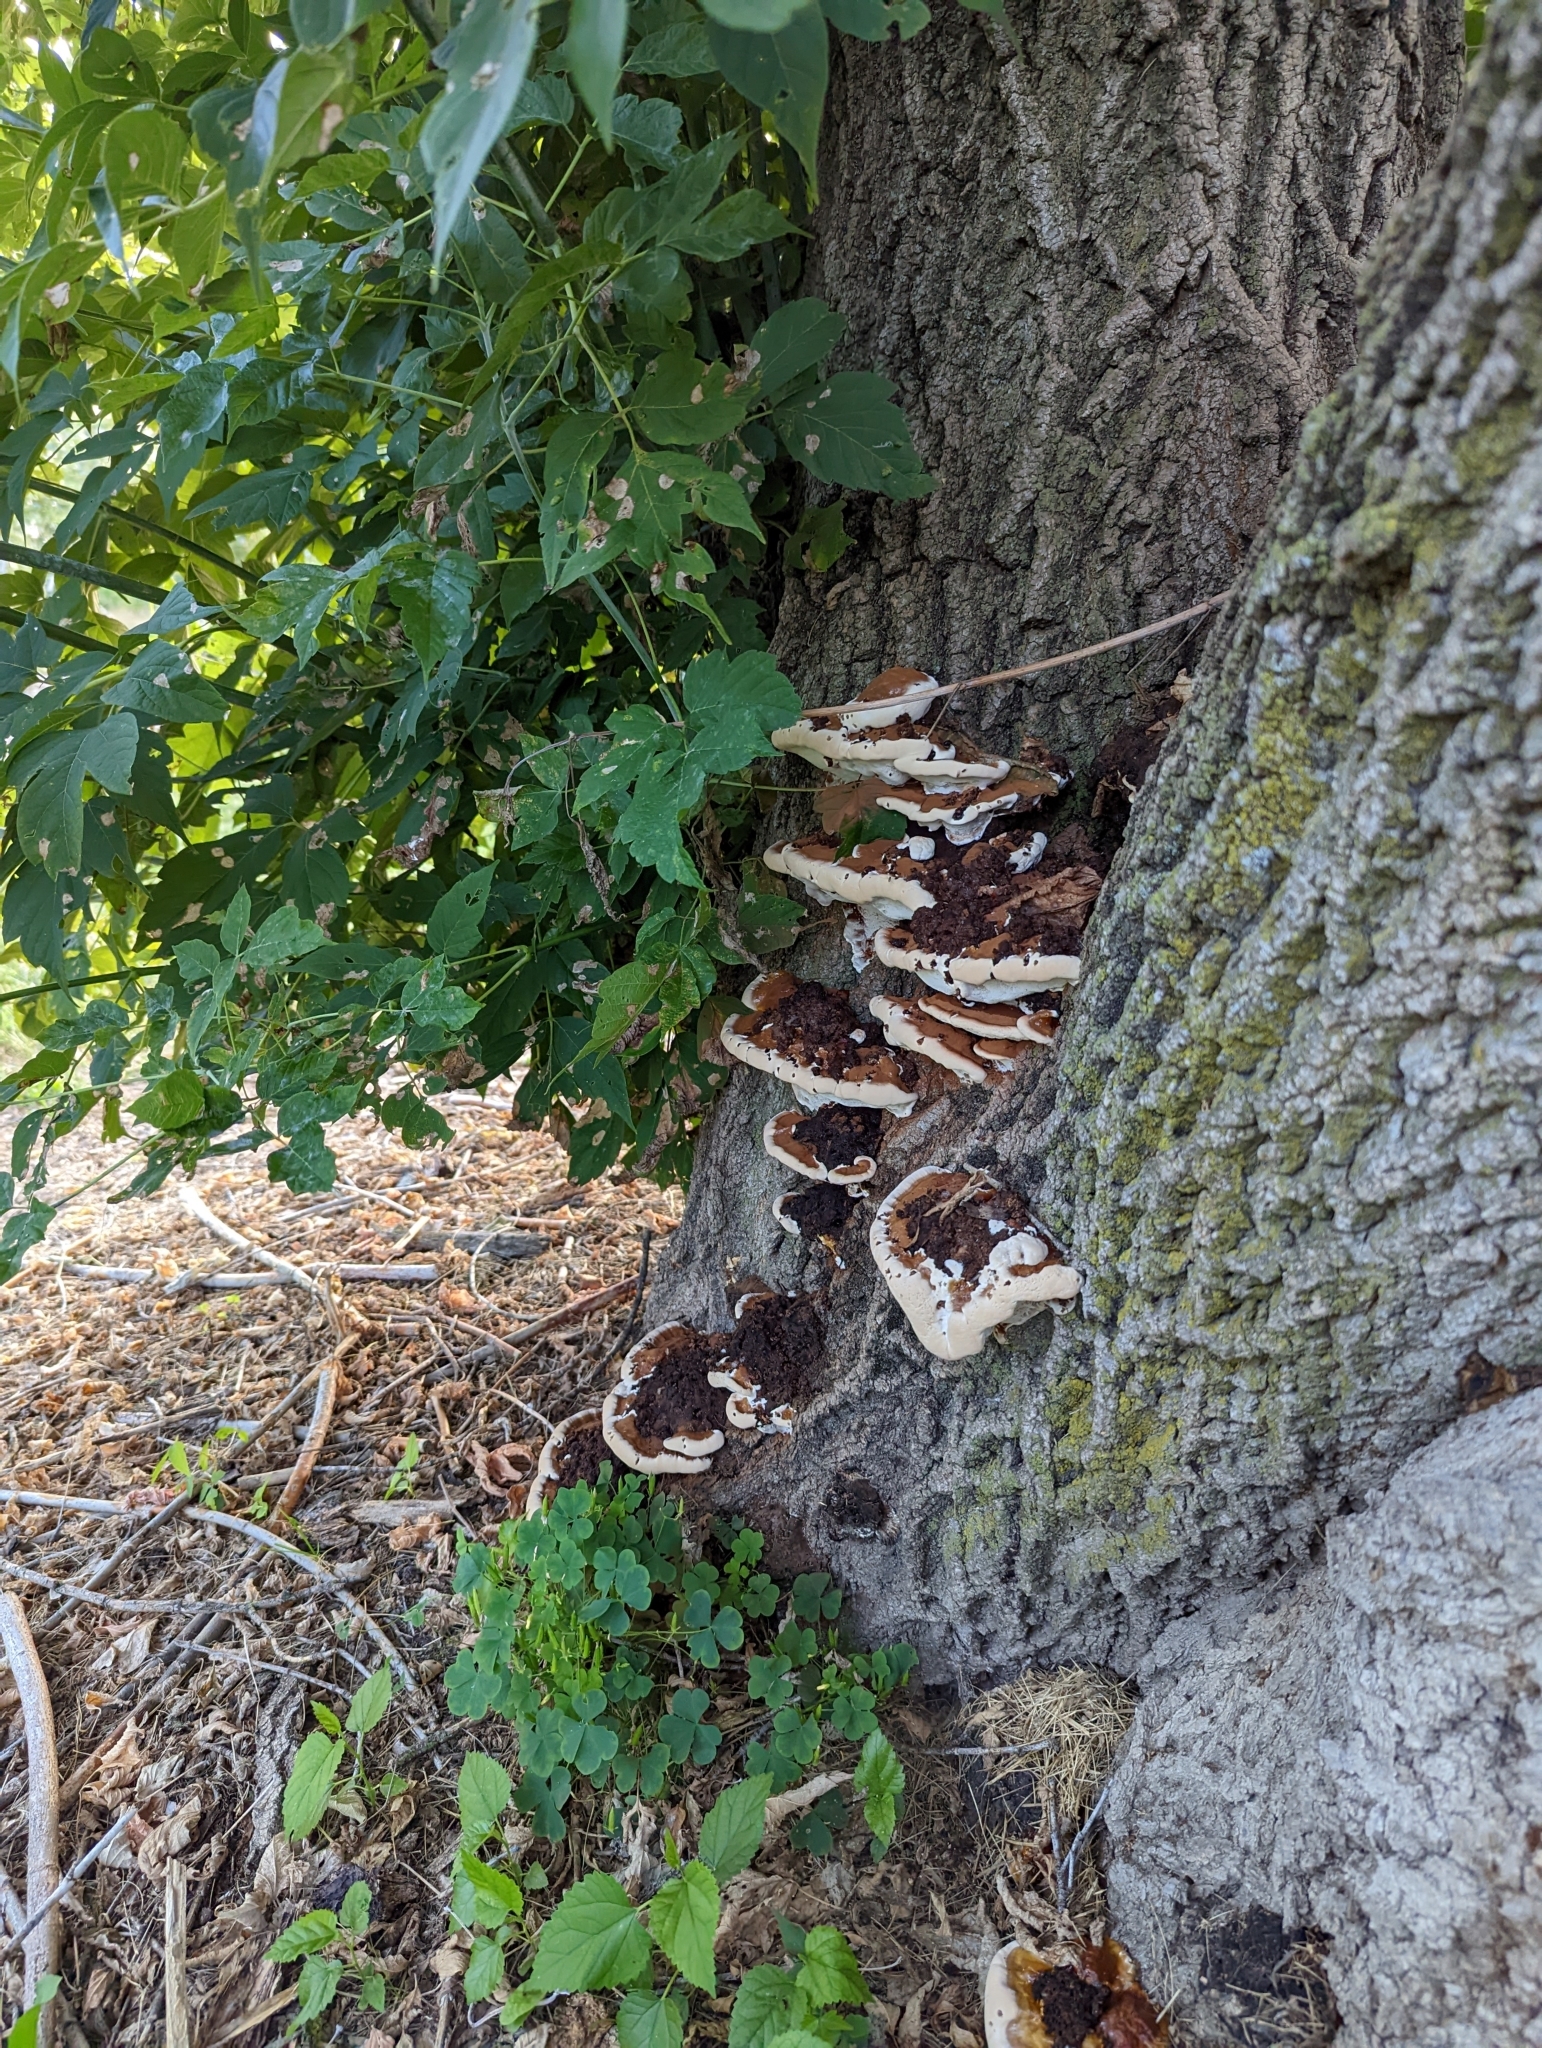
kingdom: Fungi
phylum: Basidiomycota
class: Agaricomycetes
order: Polyporales
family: Polyporaceae
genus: Ganoderma
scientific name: Ganoderma resinaceum
